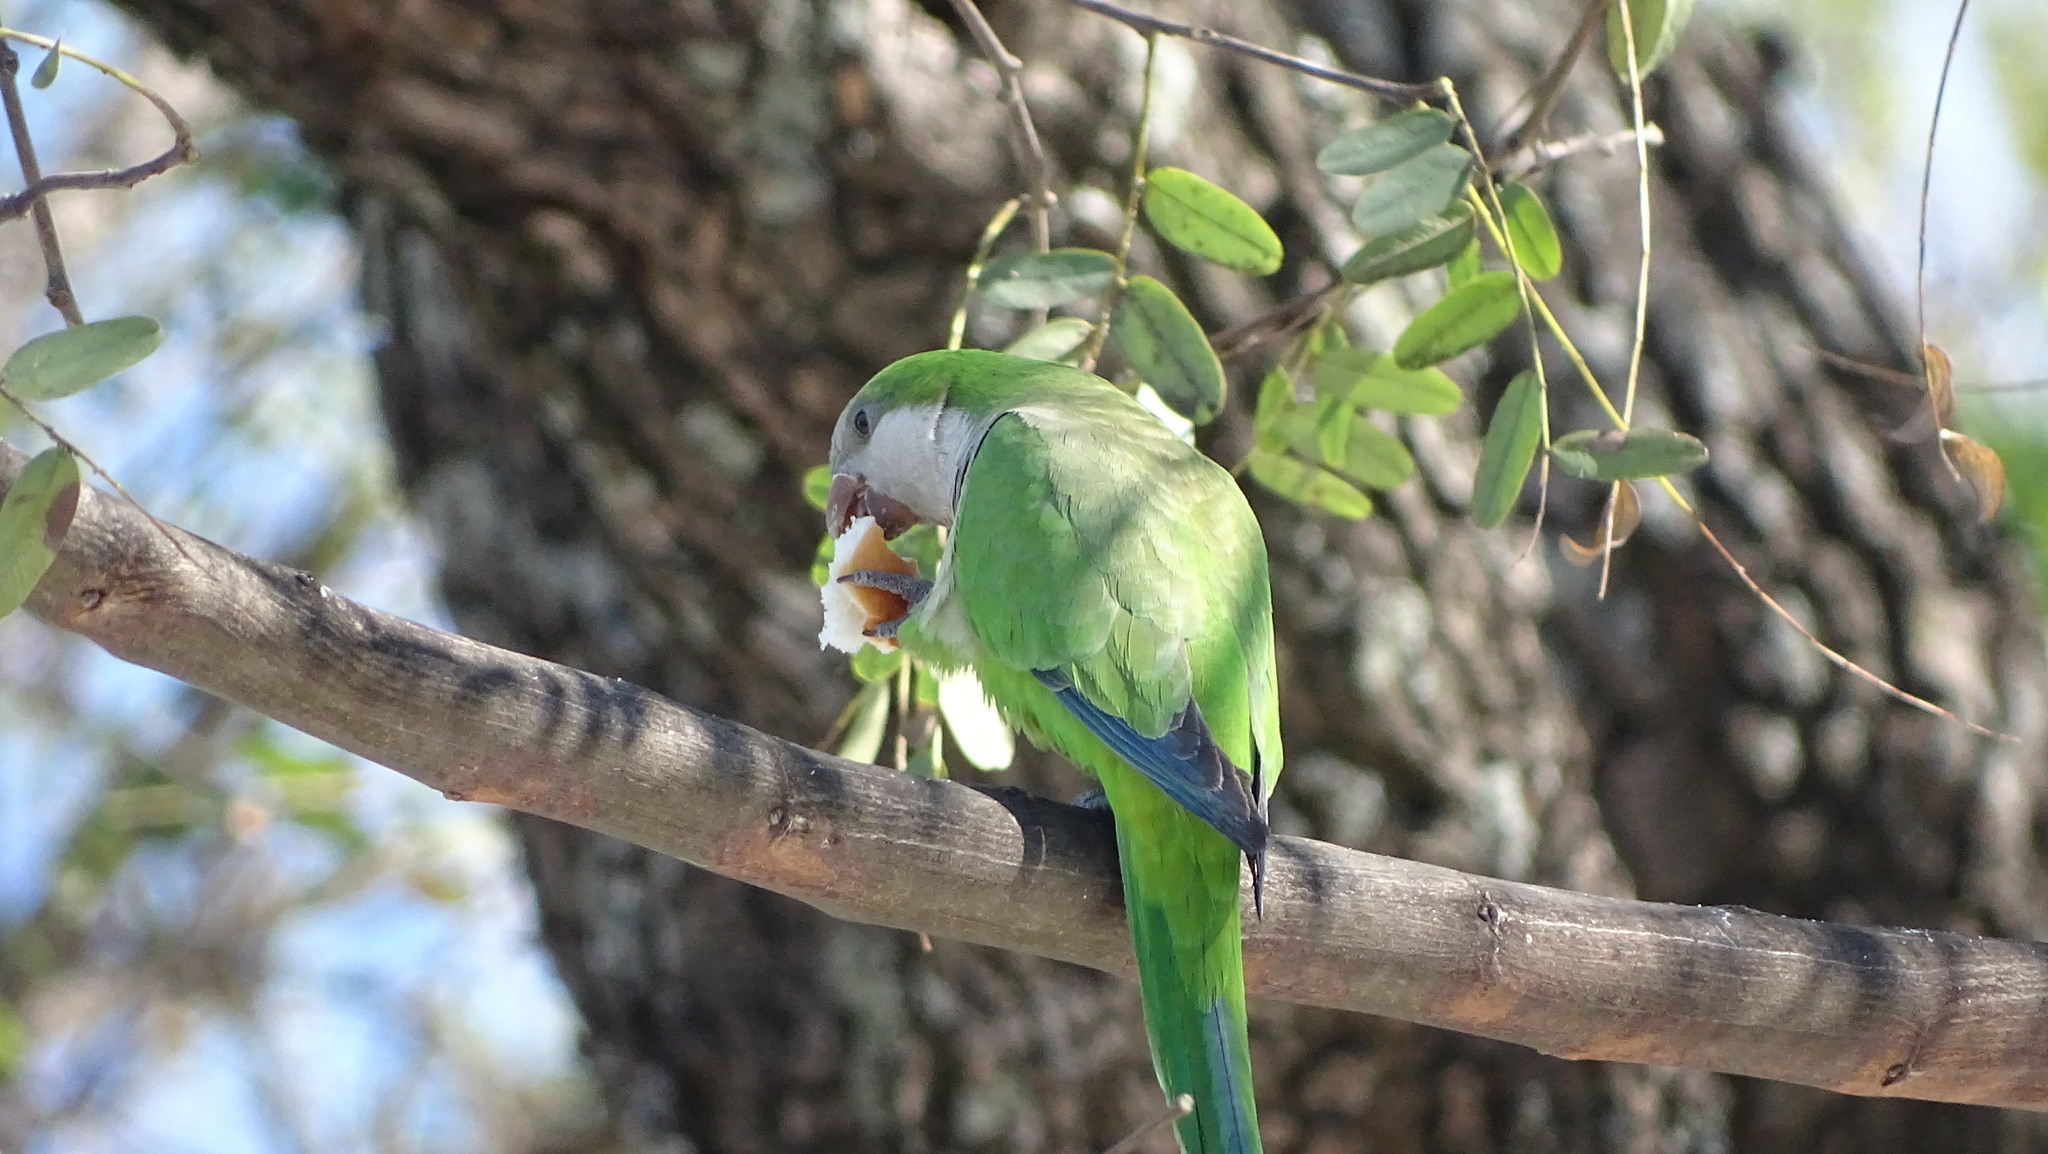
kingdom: Animalia
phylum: Chordata
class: Aves
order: Psittaciformes
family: Psittacidae
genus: Myiopsitta
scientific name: Myiopsitta monachus
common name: Monk parakeet
